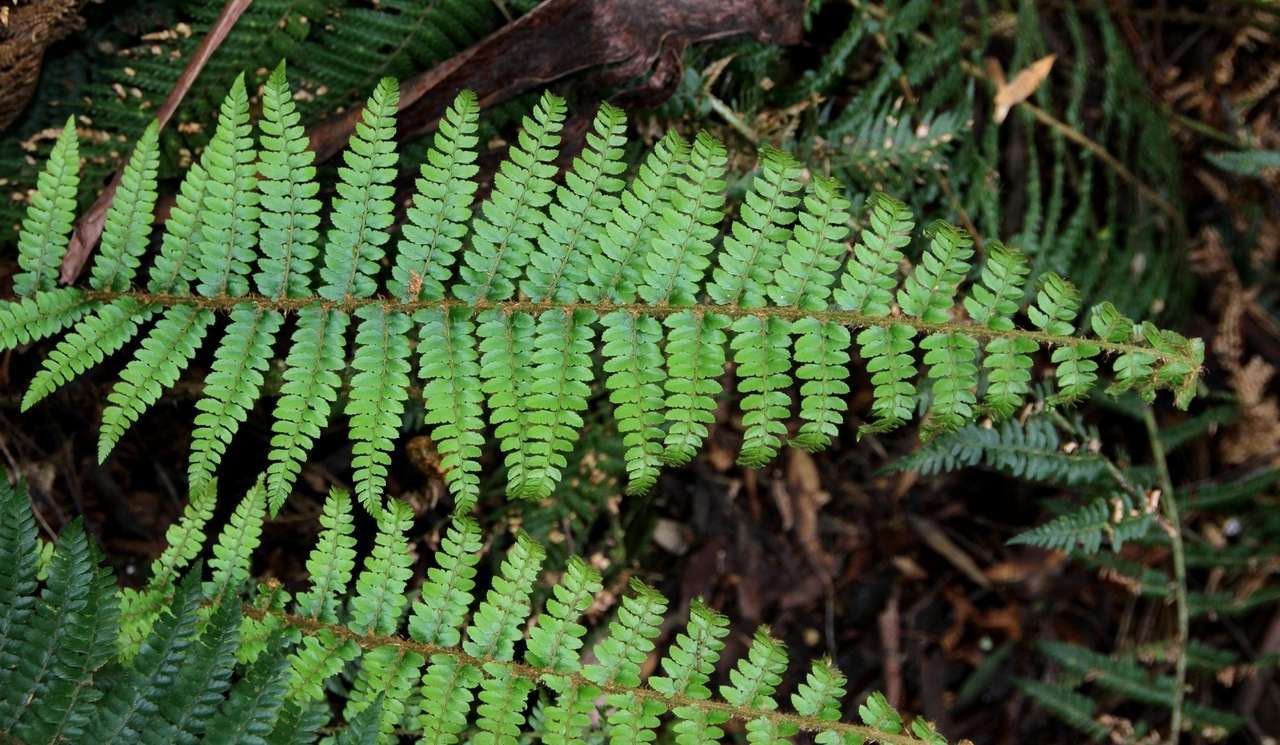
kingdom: Plantae
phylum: Tracheophyta
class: Polypodiopsida
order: Polypodiales
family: Dryopteridaceae
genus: Polystichum
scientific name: Polystichum proliferum
